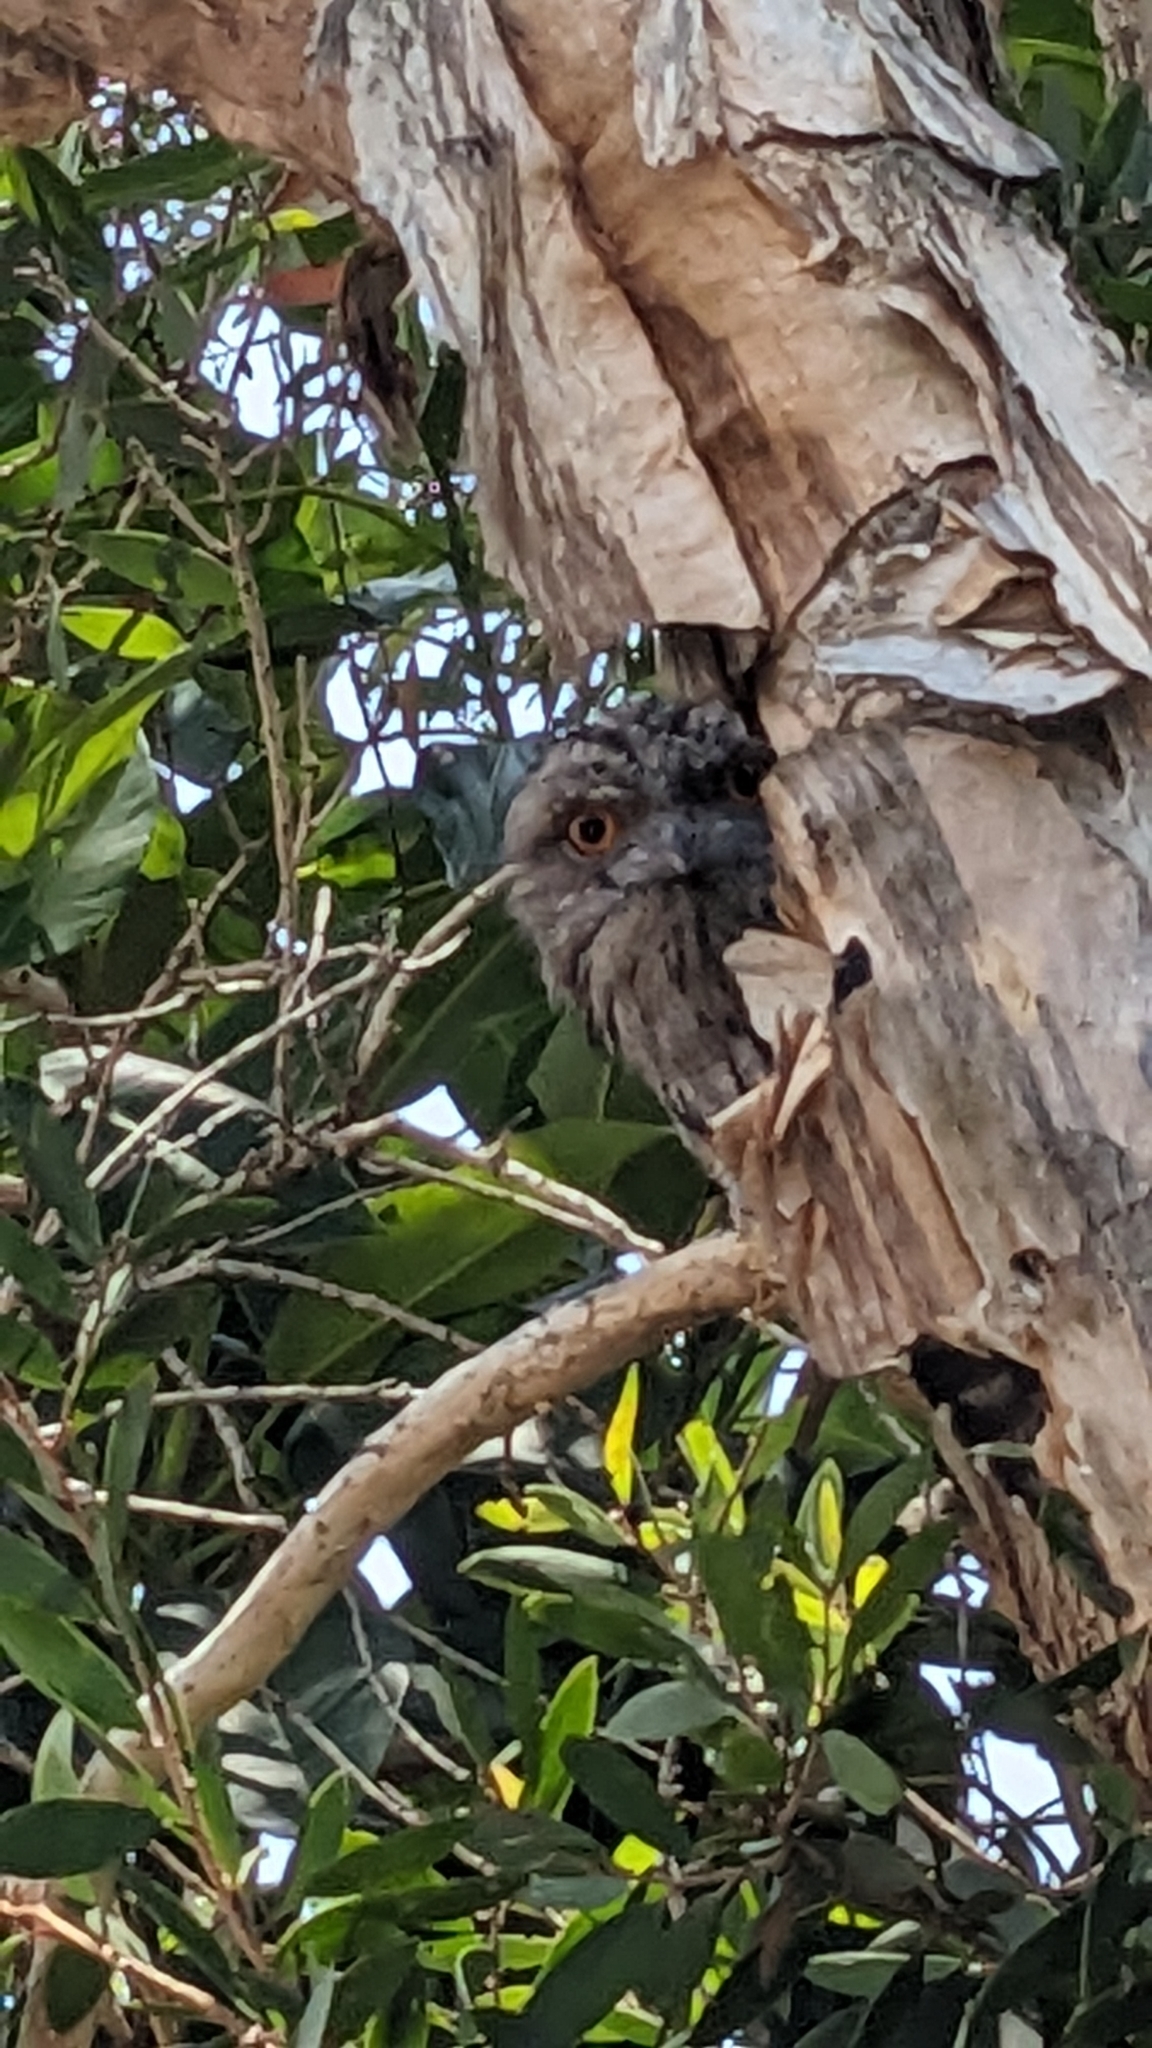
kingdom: Animalia
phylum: Chordata
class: Aves
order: Caprimulgiformes
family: Podargidae
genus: Podargus
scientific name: Podargus strigoides
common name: Tawny frogmouth
